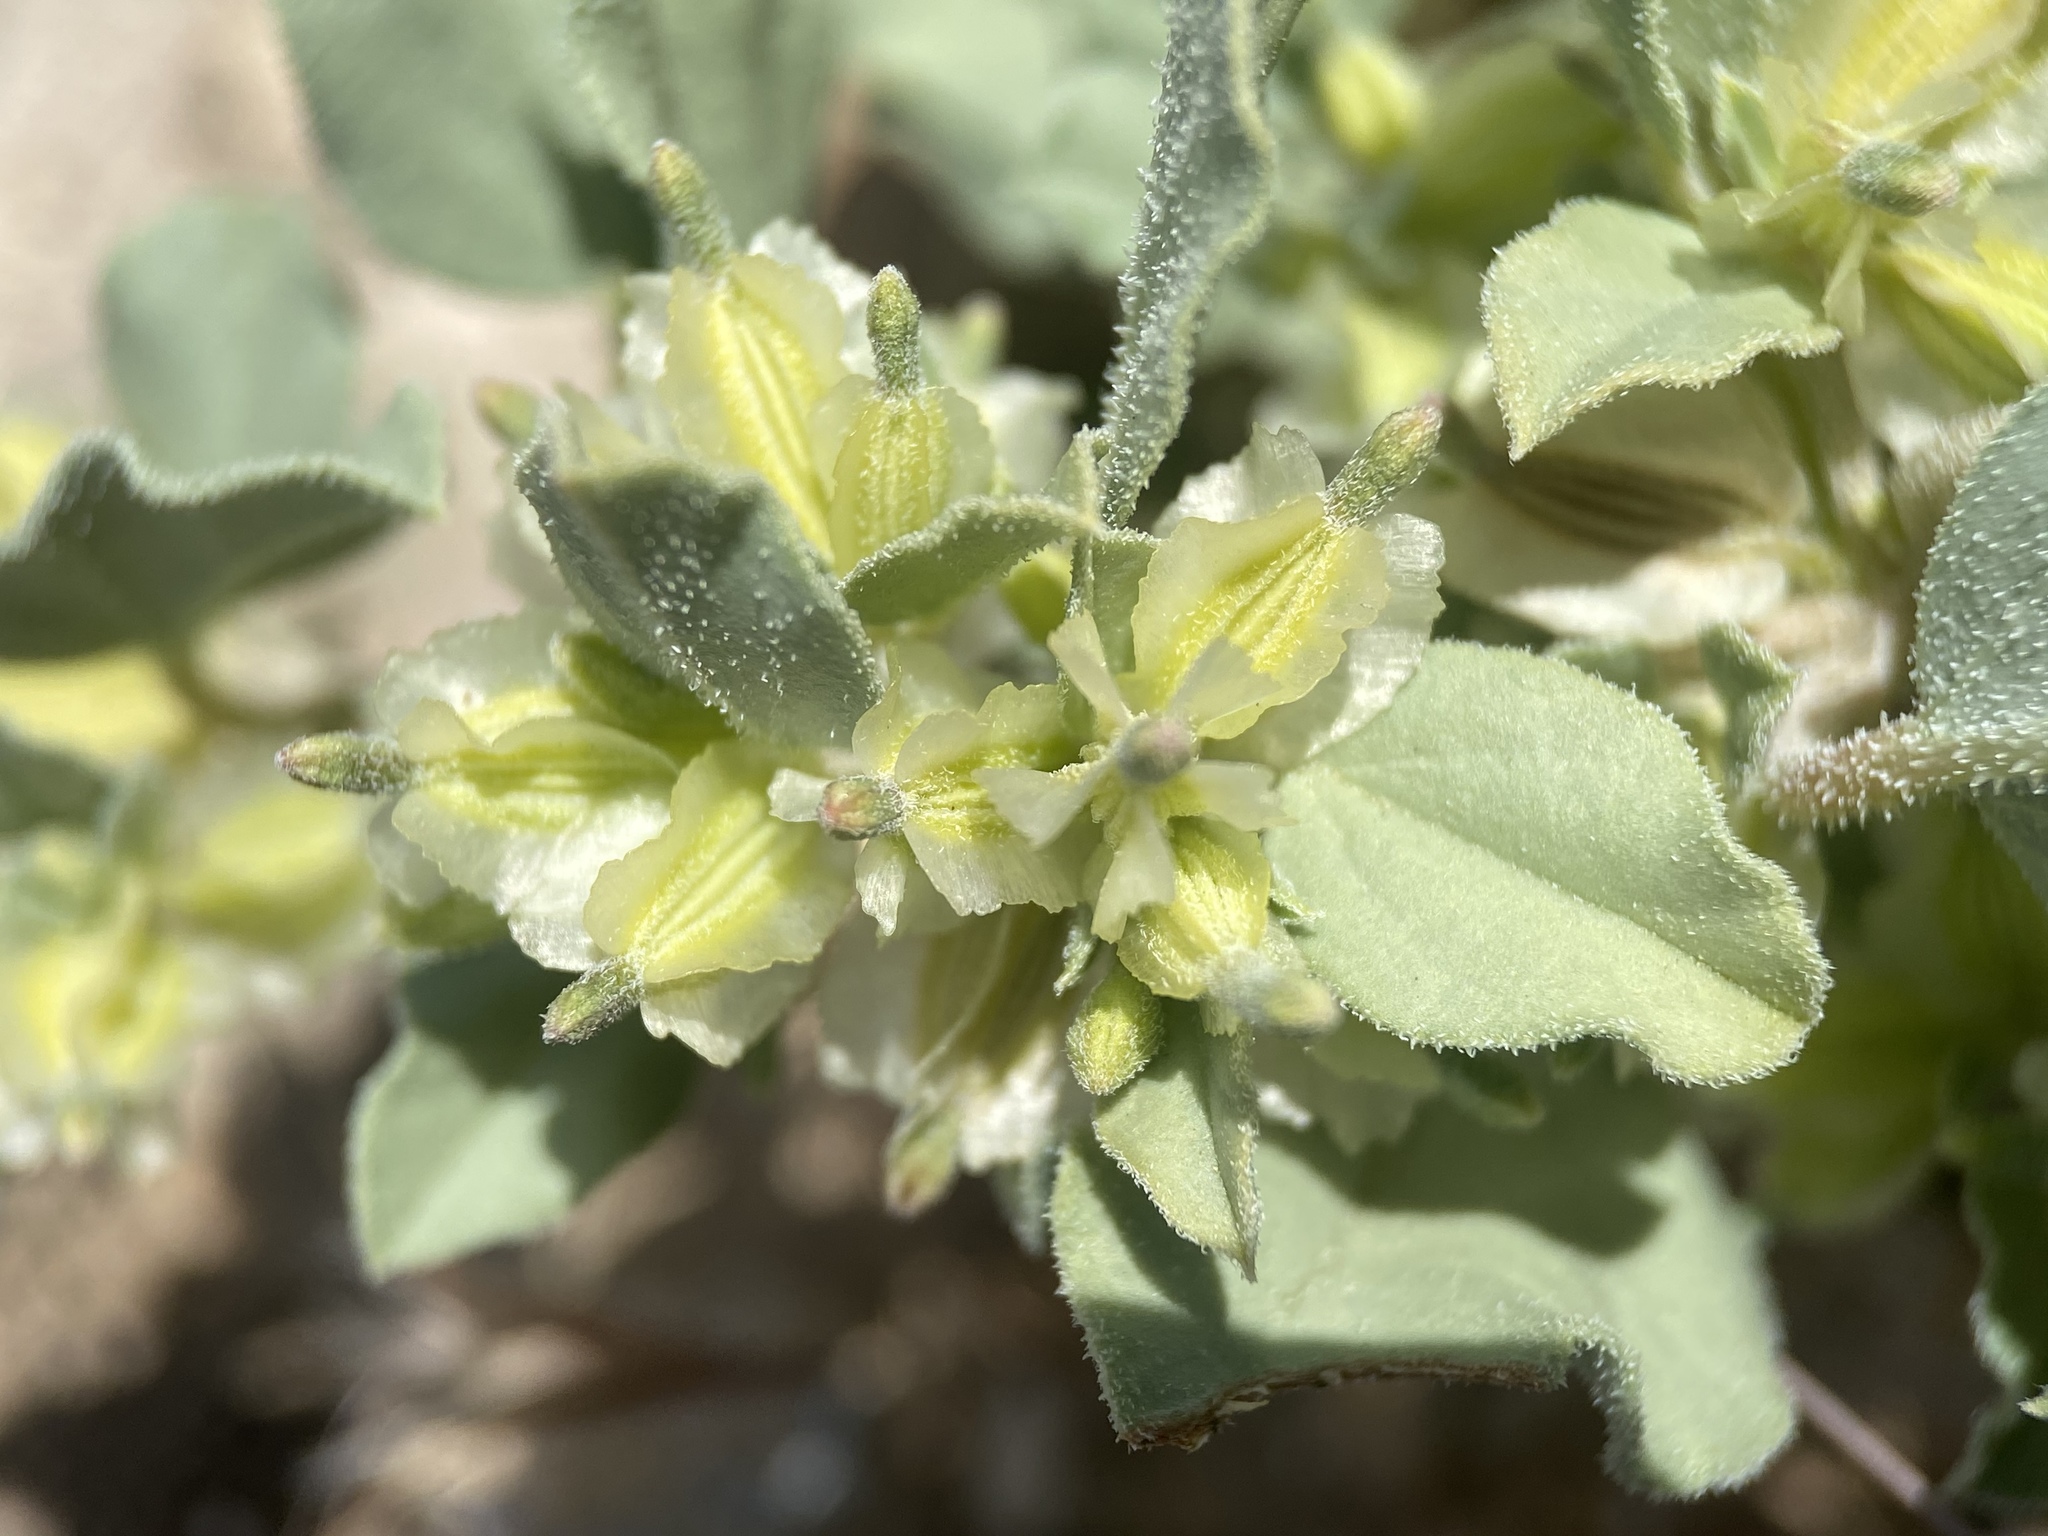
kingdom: Plantae
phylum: Tracheophyta
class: Magnoliopsida
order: Caryophyllales
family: Nyctaginaceae
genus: Acleisanthes
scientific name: Acleisanthes nevadensis
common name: Desert moonpod
